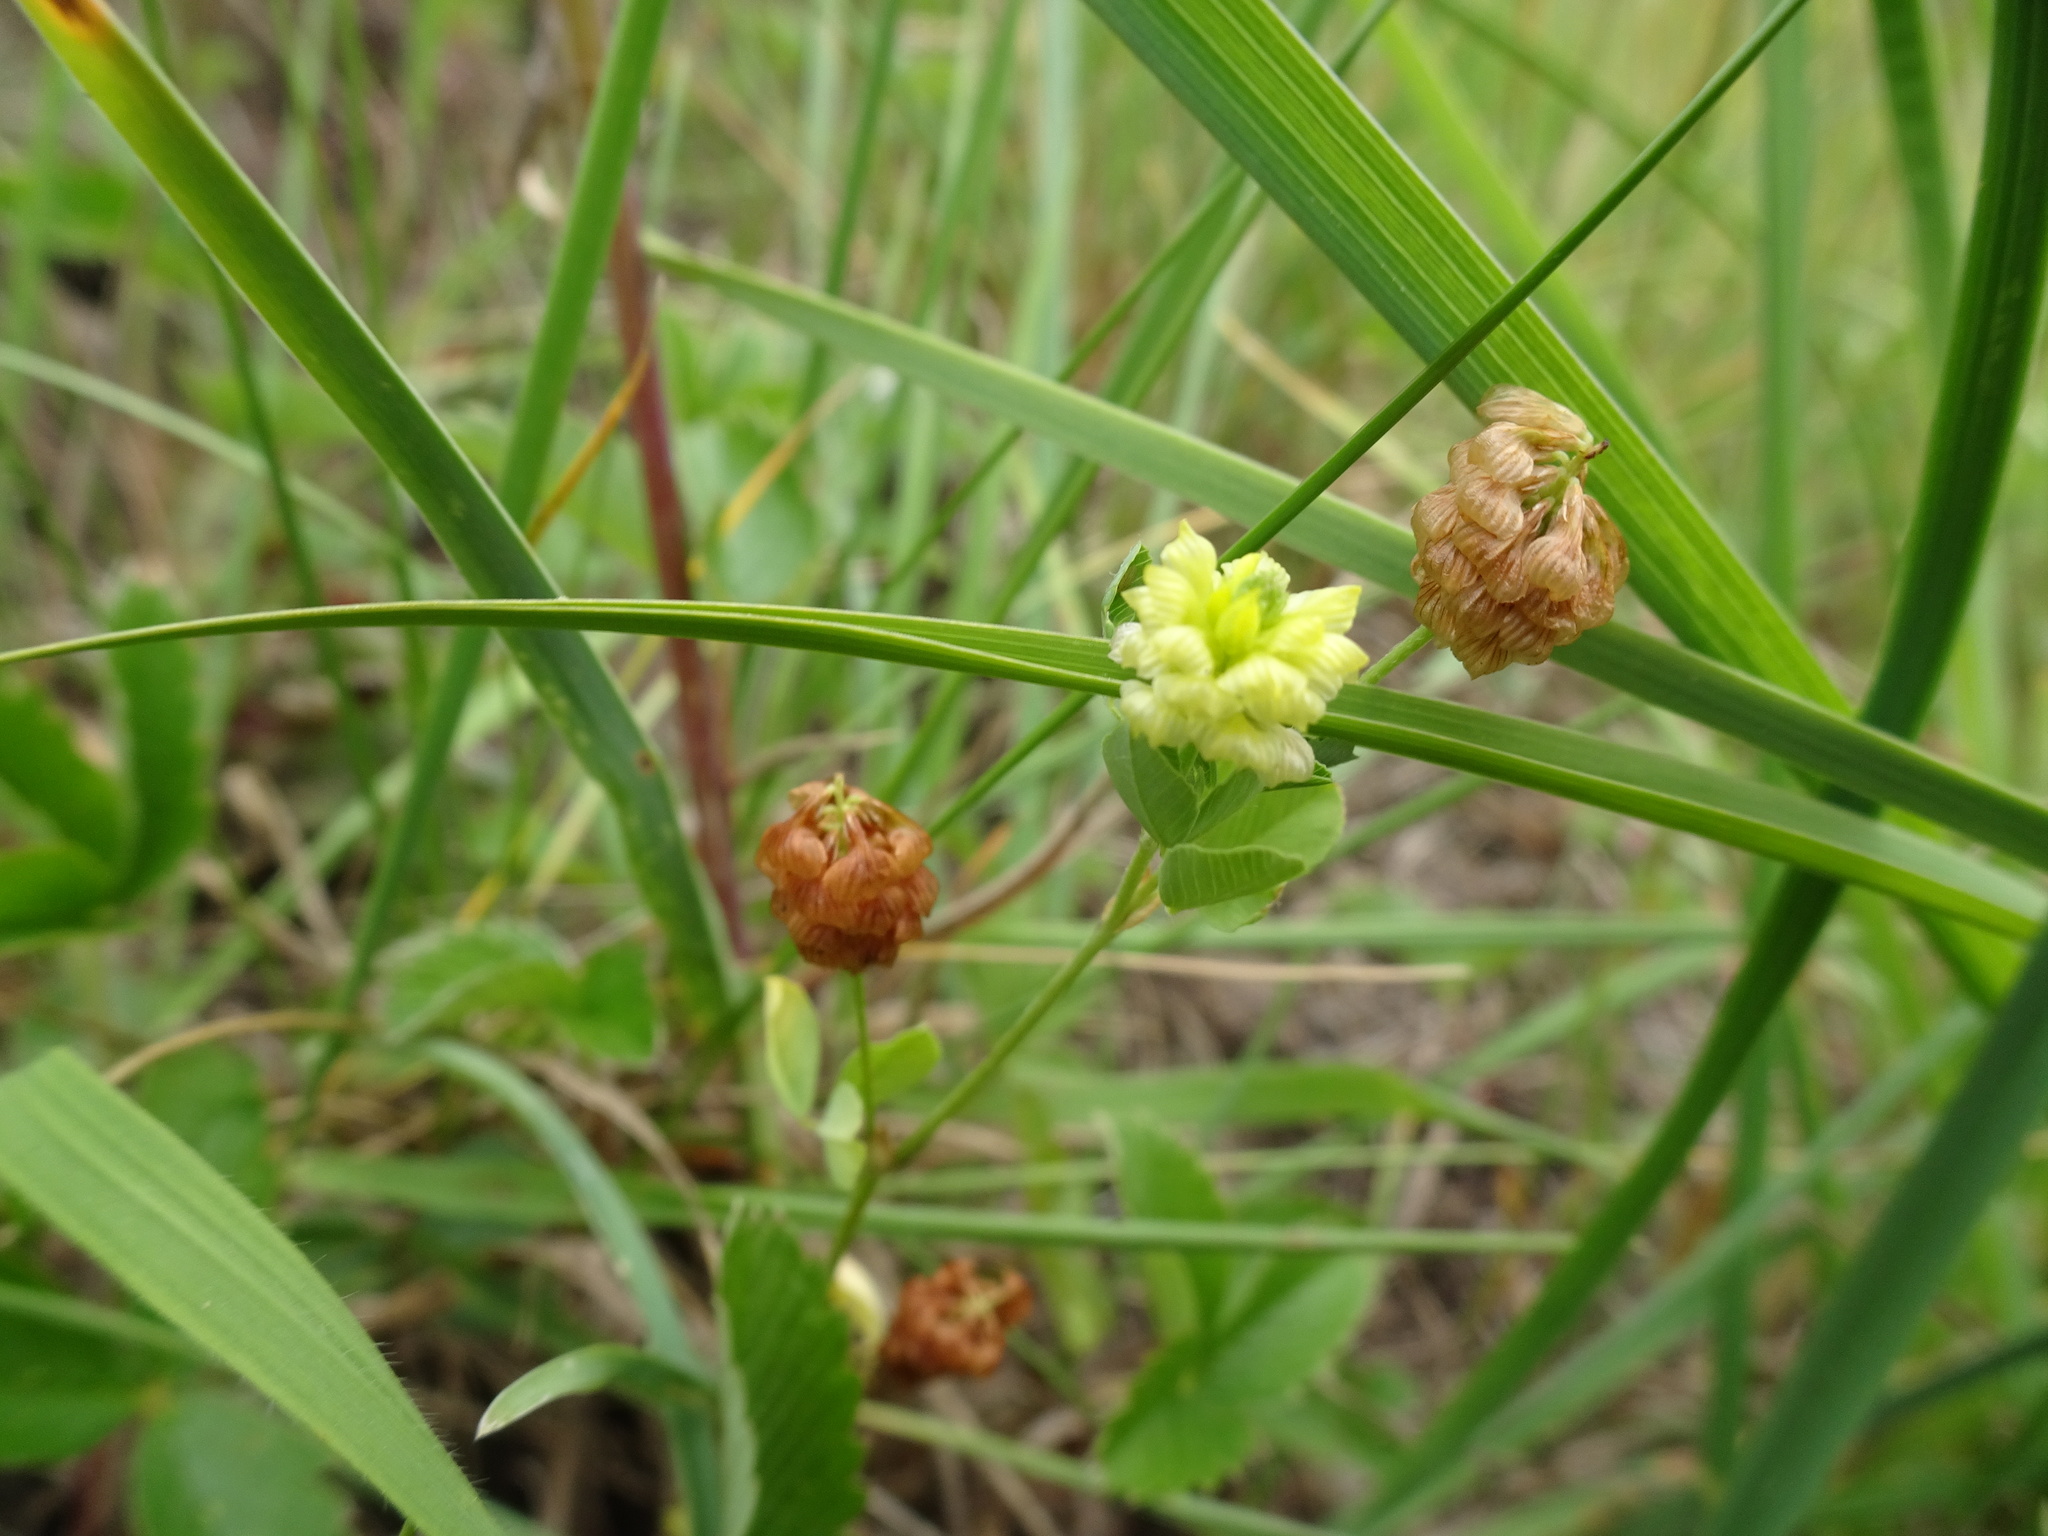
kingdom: Plantae
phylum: Tracheophyta
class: Magnoliopsida
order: Fabales
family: Fabaceae
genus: Trifolium
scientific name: Trifolium campestre
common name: Field clover
